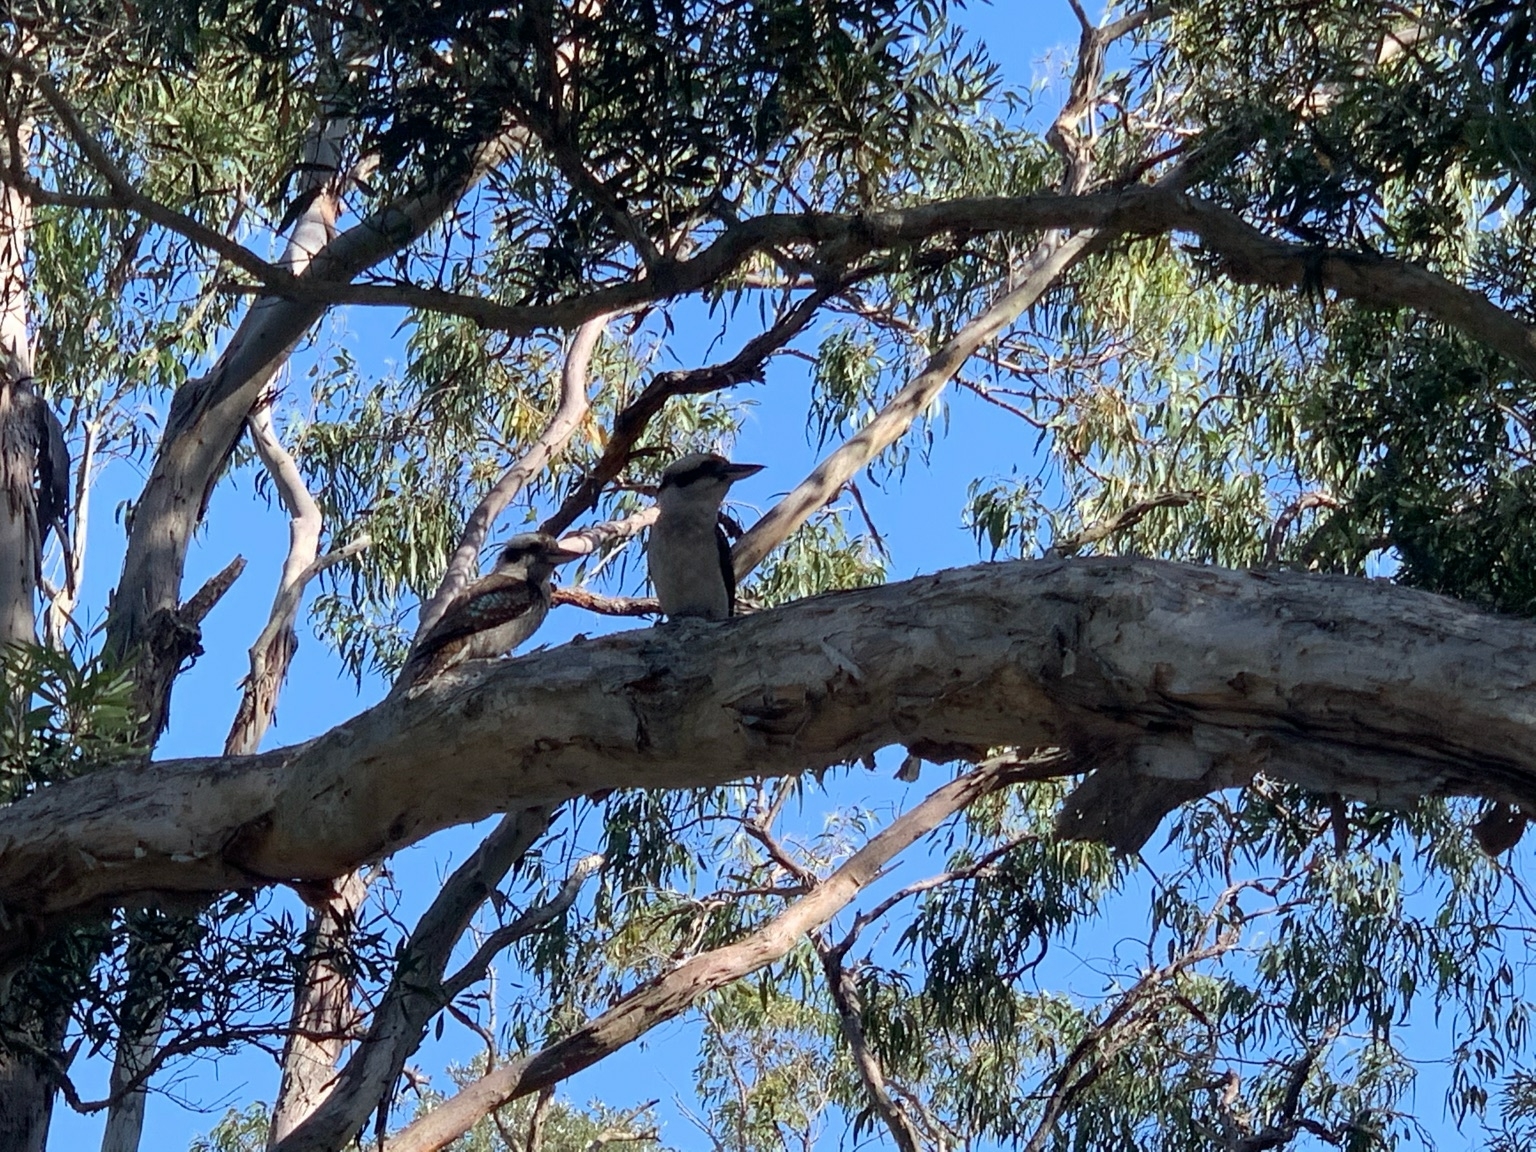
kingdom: Animalia
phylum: Chordata
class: Aves
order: Coraciiformes
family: Alcedinidae
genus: Dacelo
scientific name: Dacelo novaeguineae
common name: Laughing kookaburra
